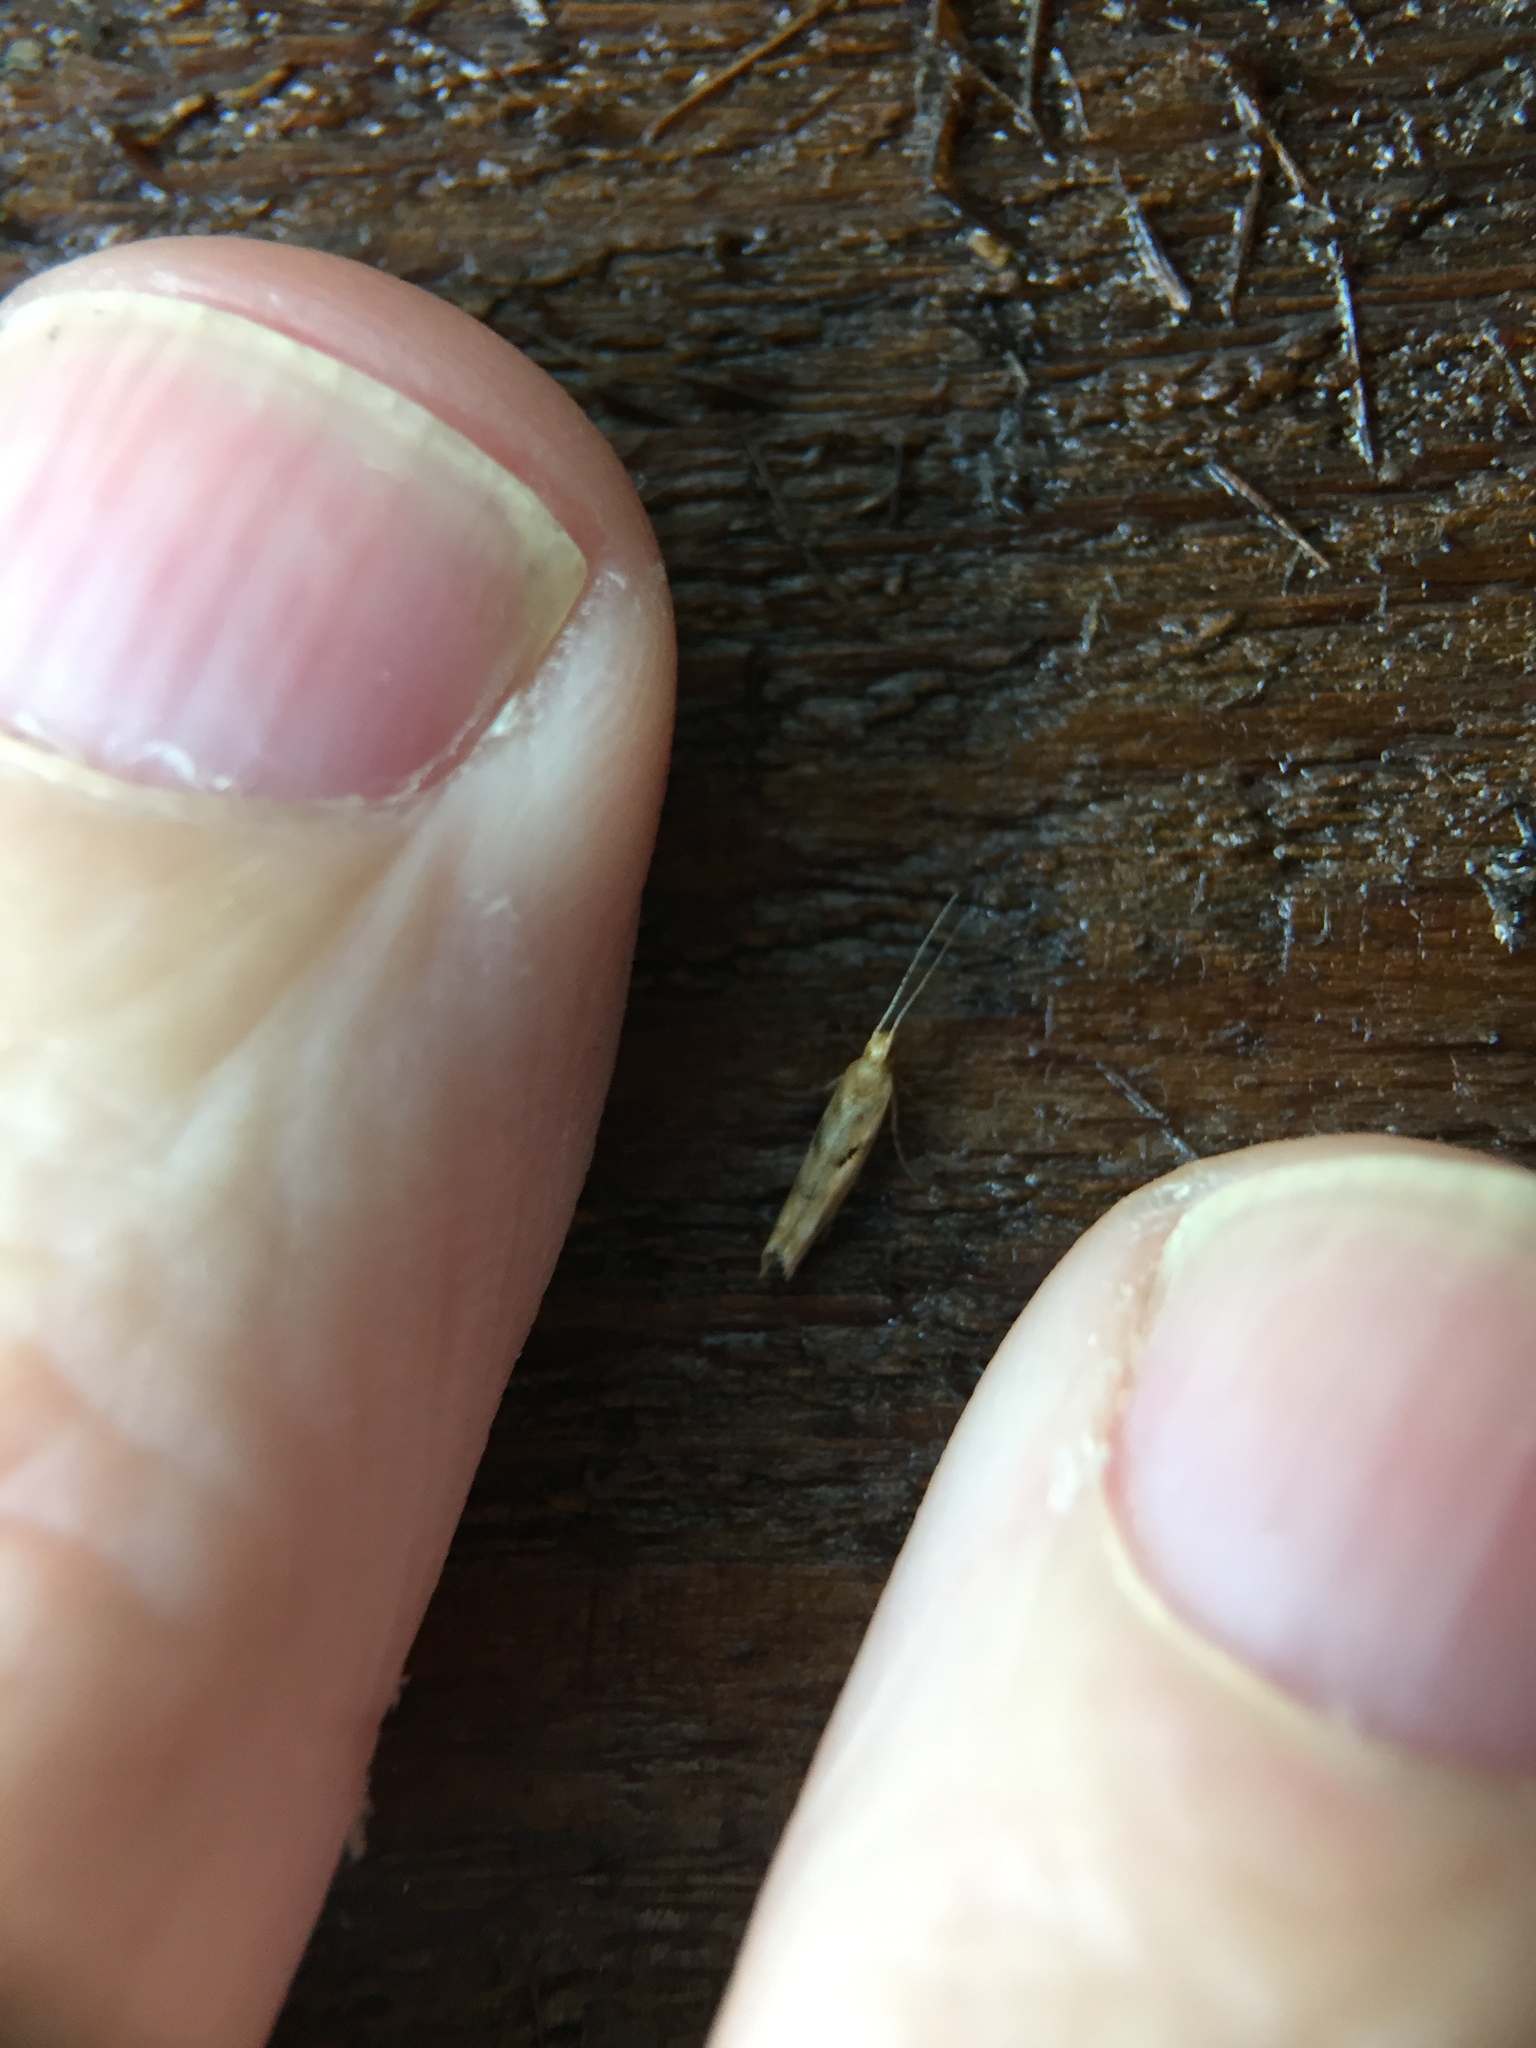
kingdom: Animalia
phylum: Arthropoda
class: Insecta
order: Lepidoptera
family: Glyphipterigidae
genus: Chrysorthenches
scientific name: Chrysorthenches virgata
